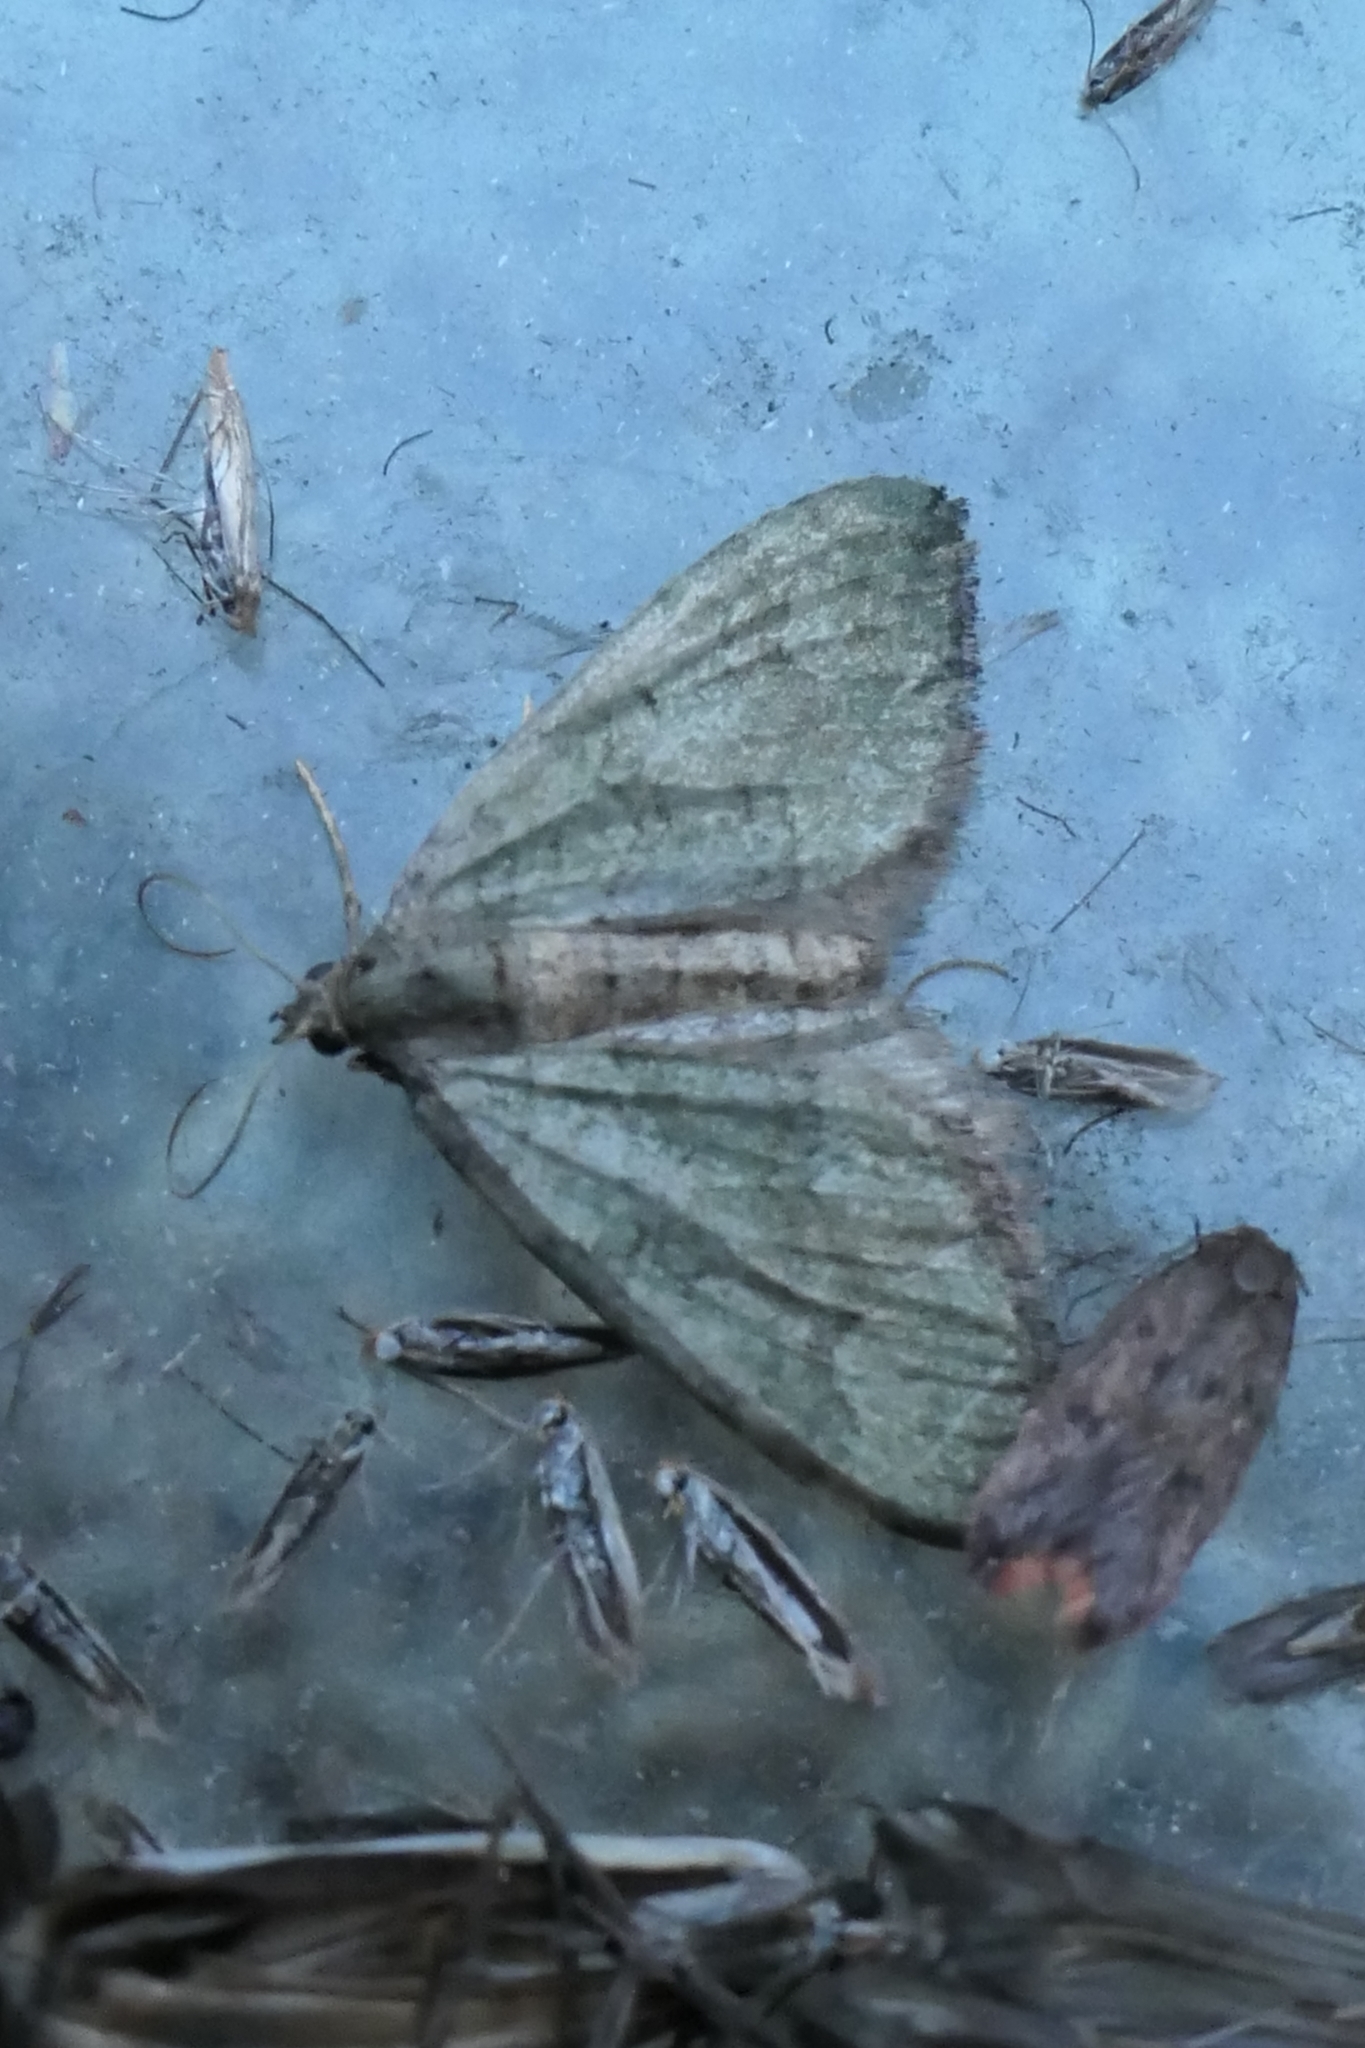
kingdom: Animalia
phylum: Arthropoda
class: Insecta
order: Lepidoptera
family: Geometridae
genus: Epyaxa
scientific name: Epyaxa rosearia
